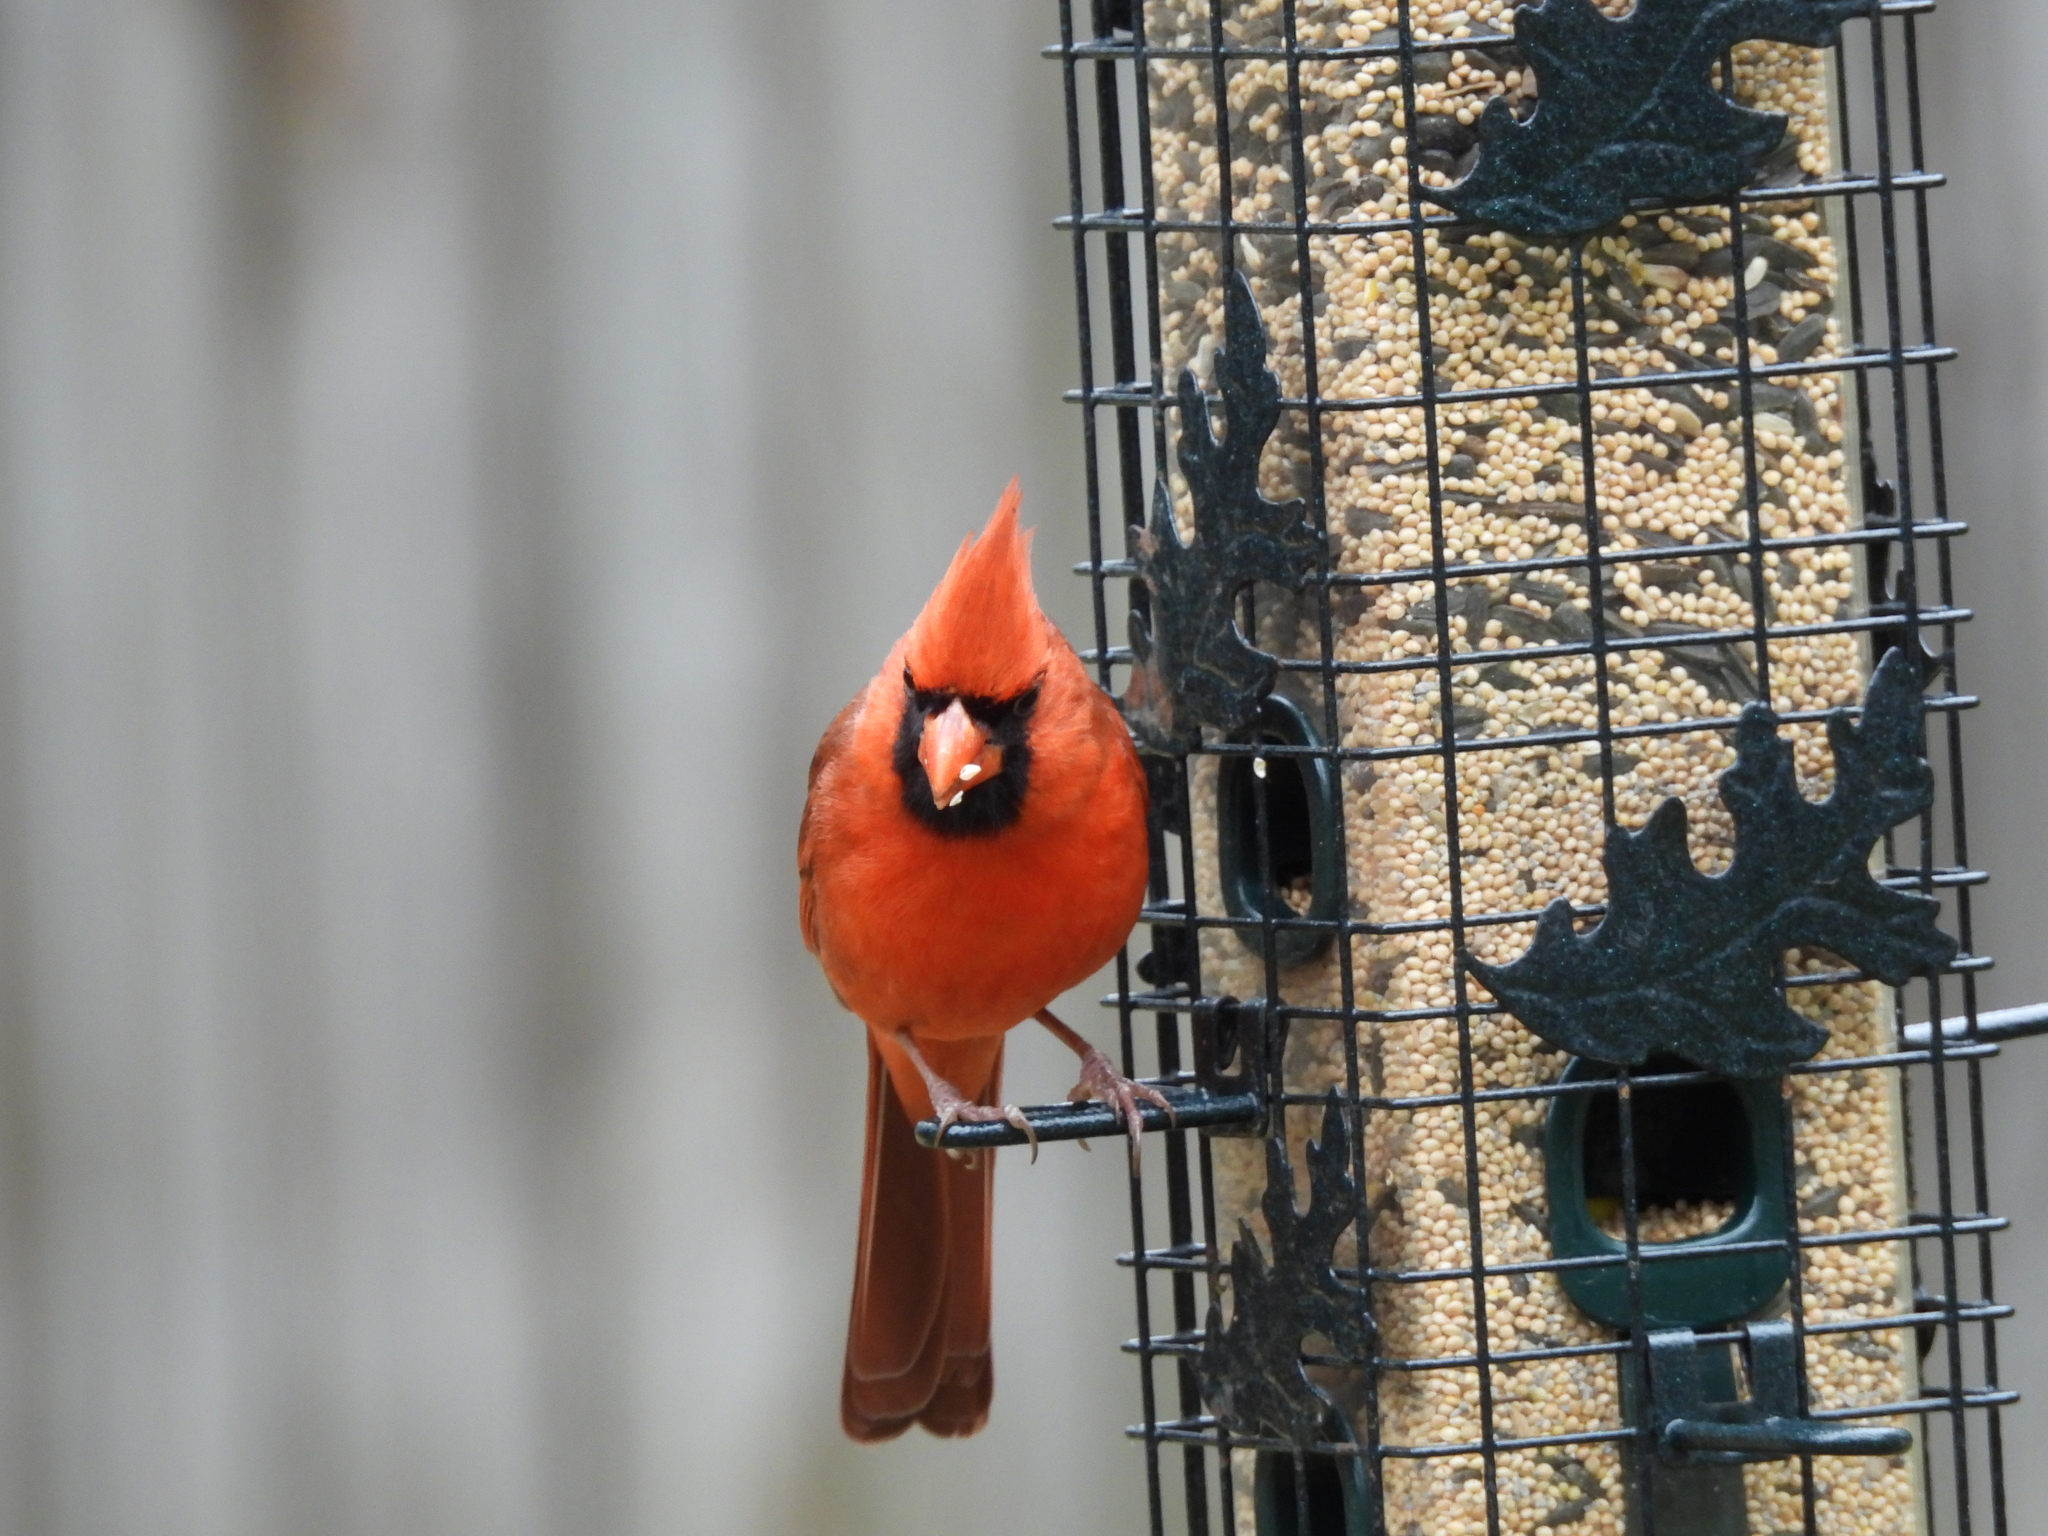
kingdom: Animalia
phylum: Chordata
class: Aves
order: Passeriformes
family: Cardinalidae
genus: Cardinalis
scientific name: Cardinalis cardinalis
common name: Northern cardinal
